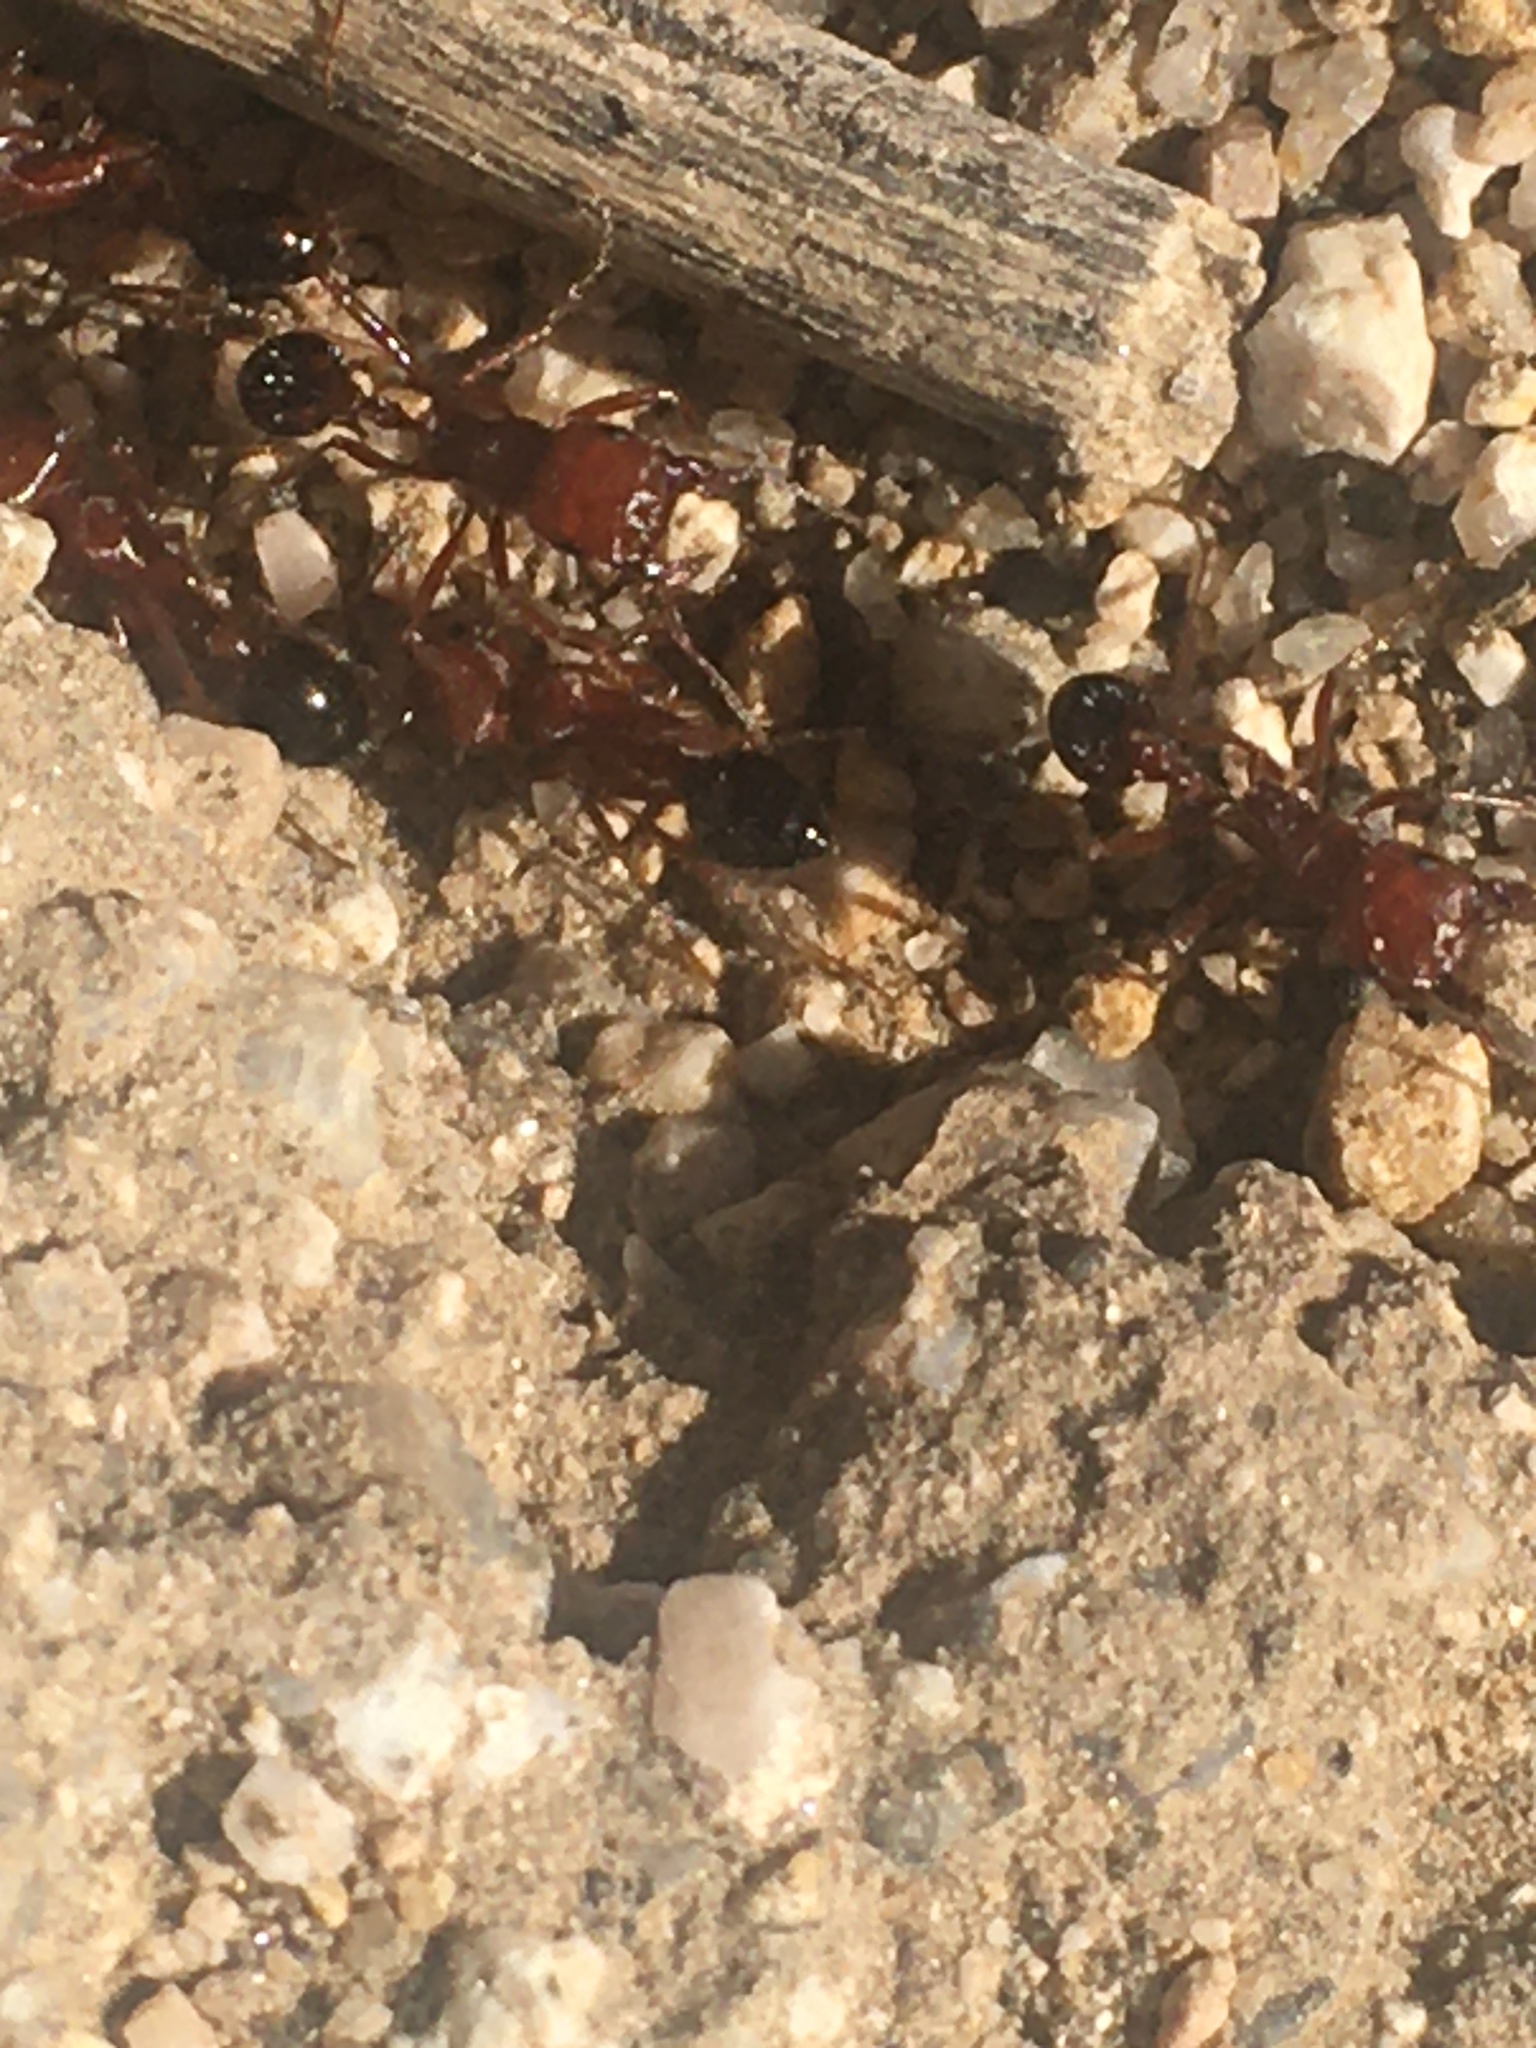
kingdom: Animalia
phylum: Arthropoda
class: Insecta
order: Hymenoptera
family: Formicidae
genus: Pogonomyrmex
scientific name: Pogonomyrmex californicus
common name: California harvester ant
